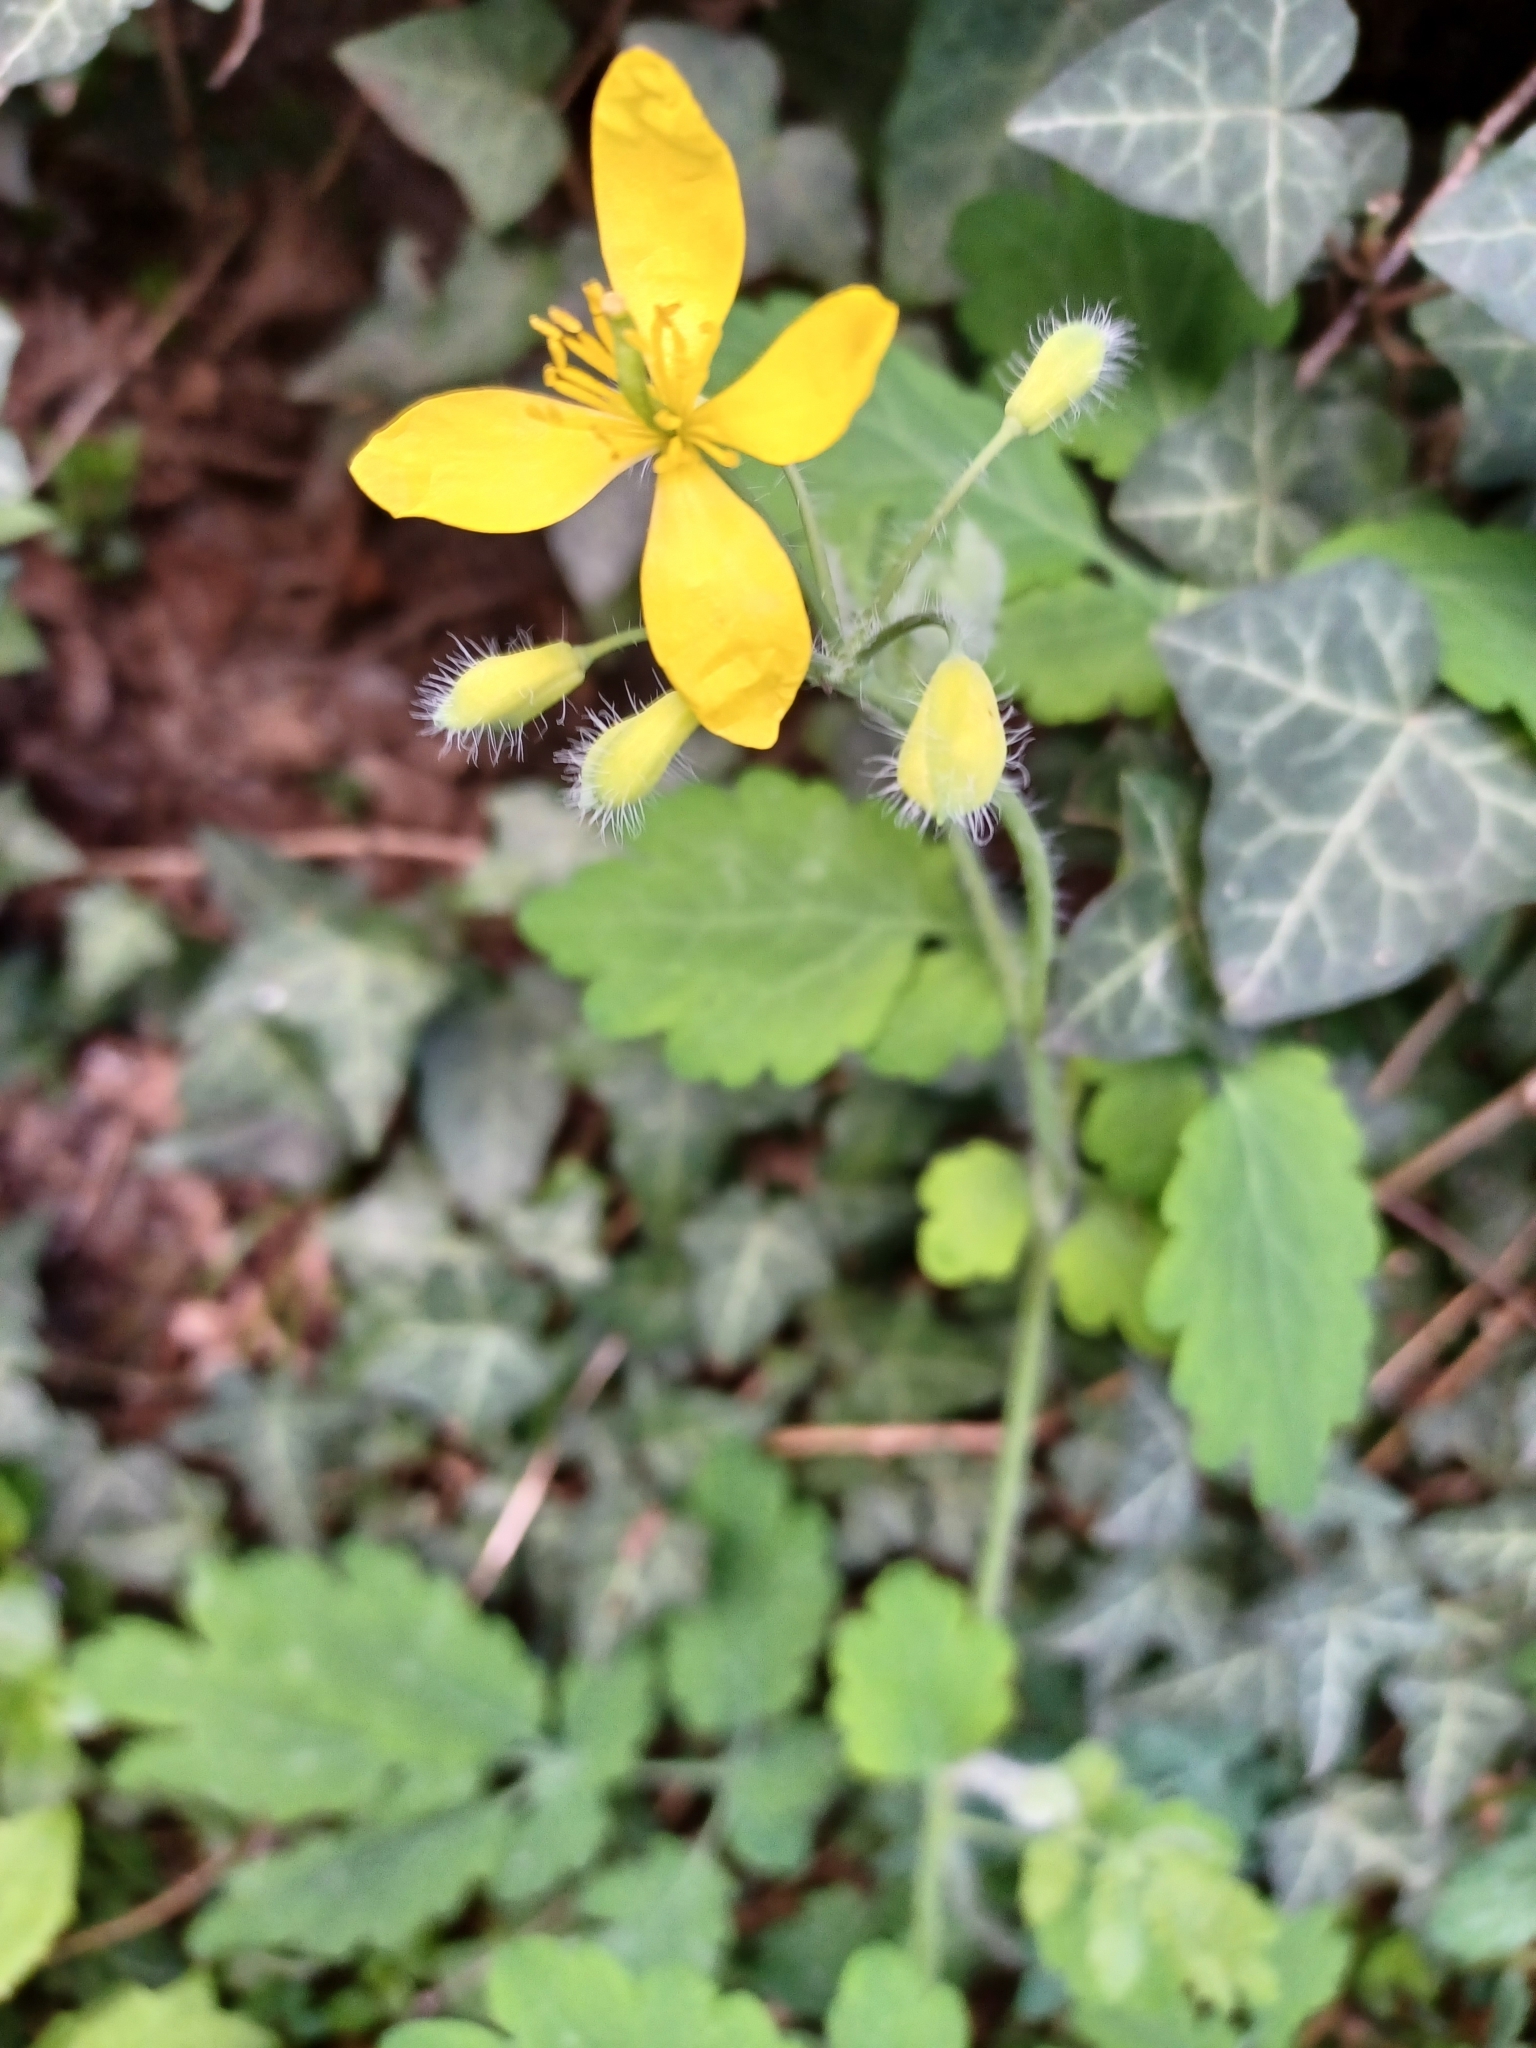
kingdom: Plantae
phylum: Tracheophyta
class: Magnoliopsida
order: Ranunculales
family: Papaveraceae
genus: Chelidonium
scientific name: Chelidonium majus
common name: Greater celandine
